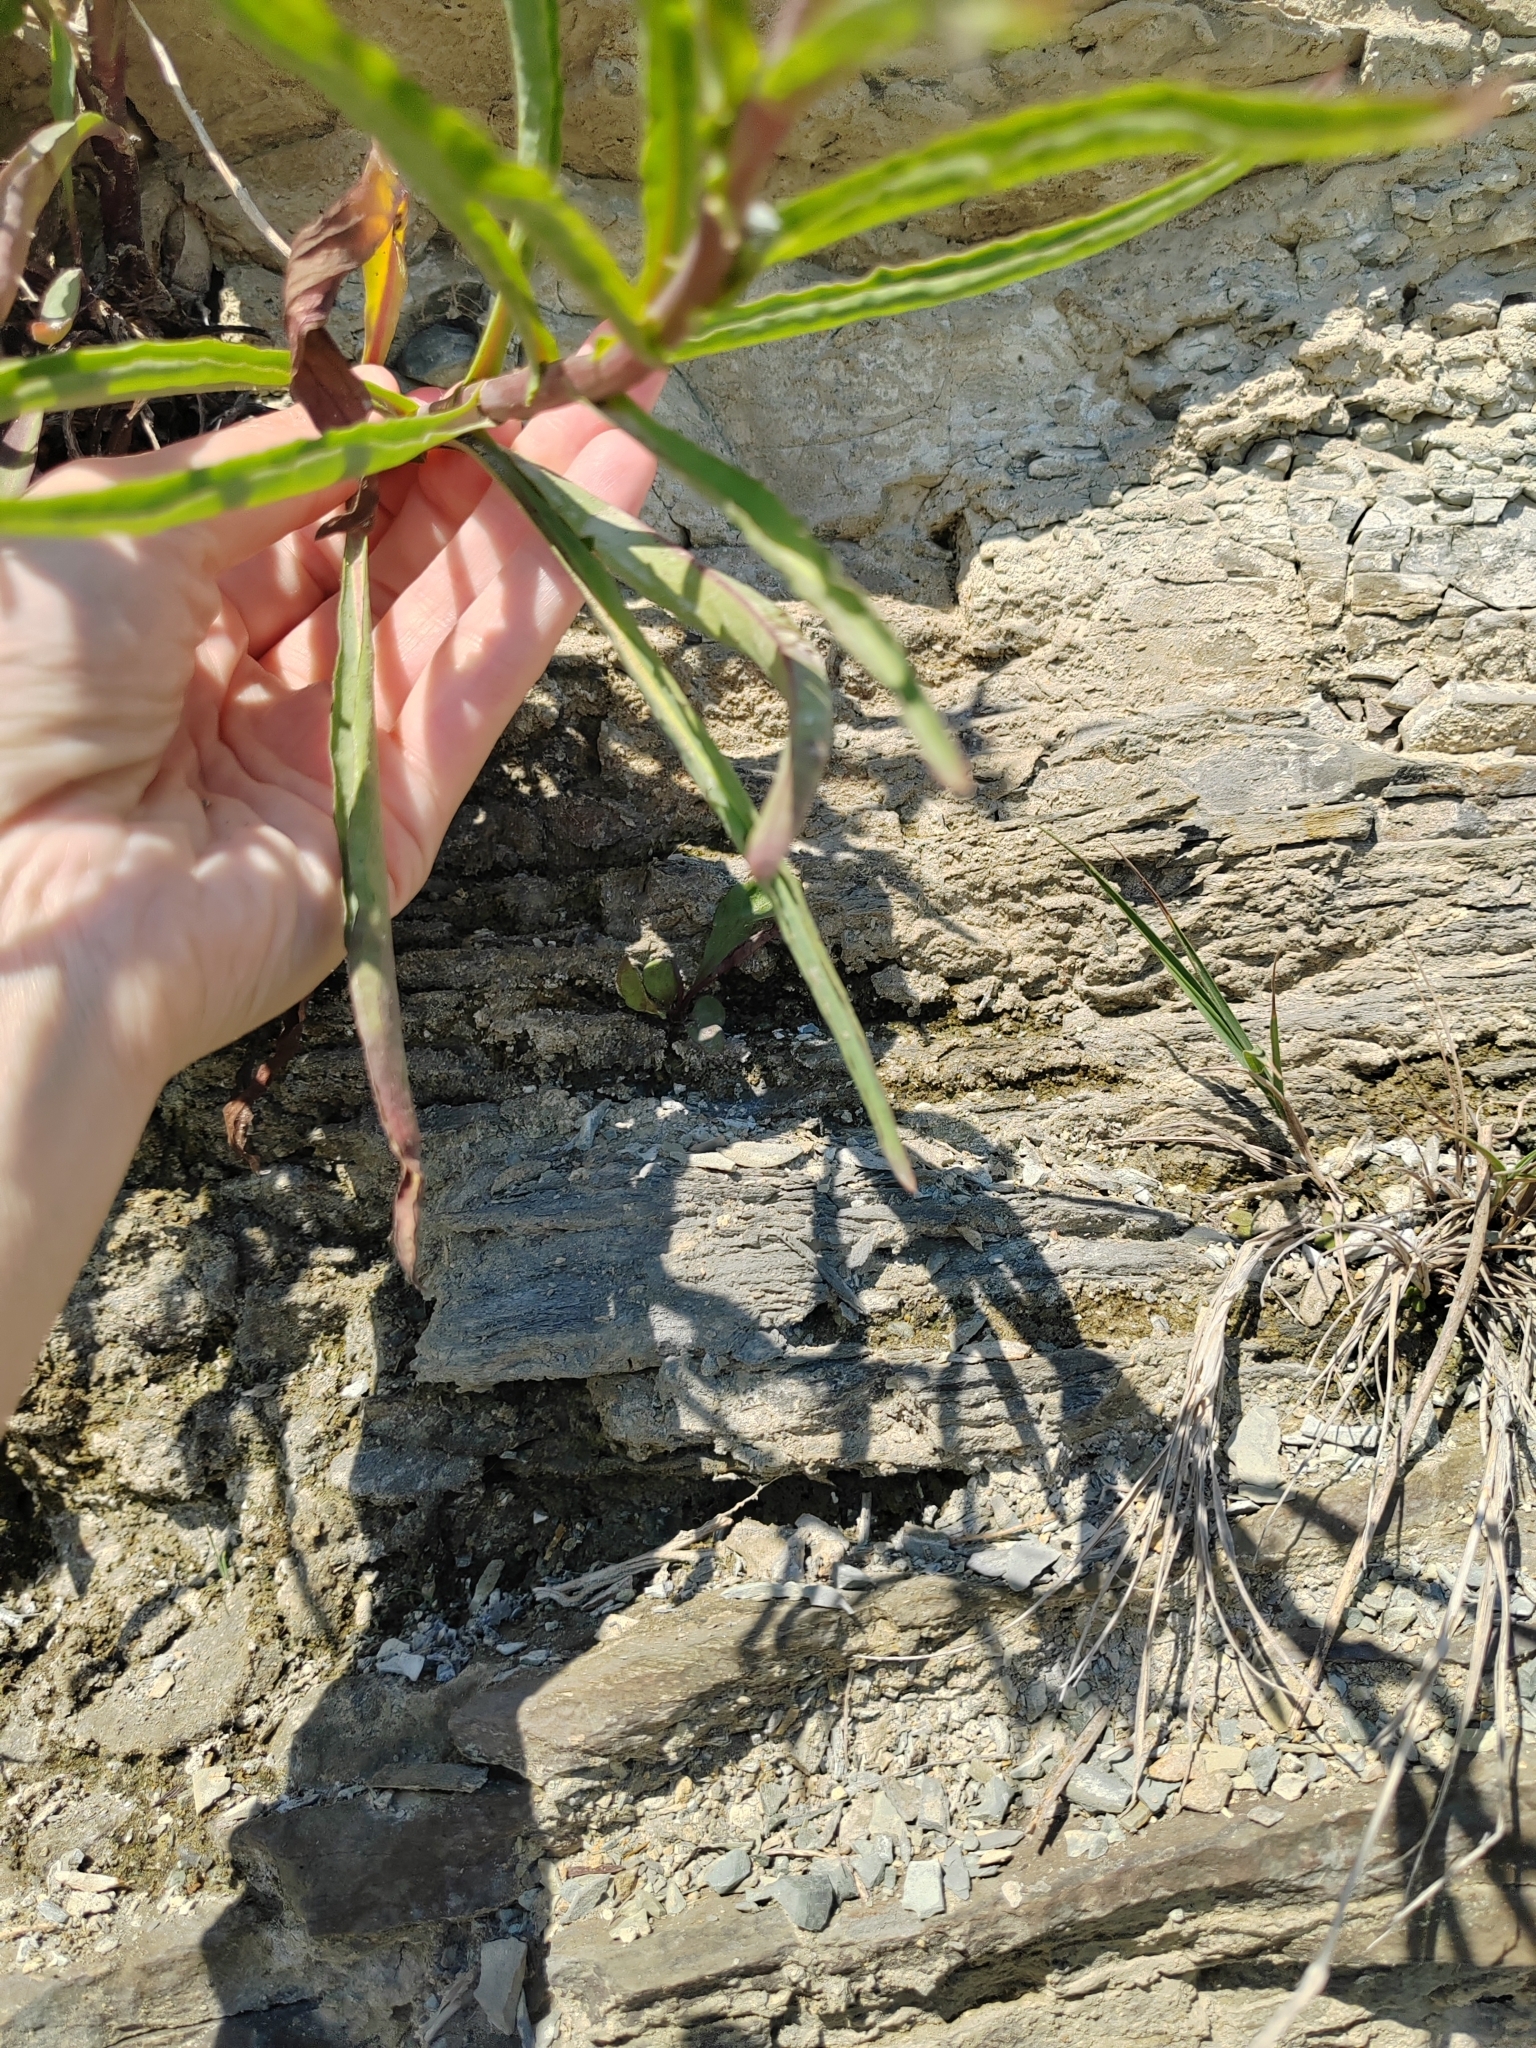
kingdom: Plantae
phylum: Tracheophyta
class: Magnoliopsida
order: Asterales
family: Asteraceae
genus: Pentanema
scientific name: Pentanema caspicum
